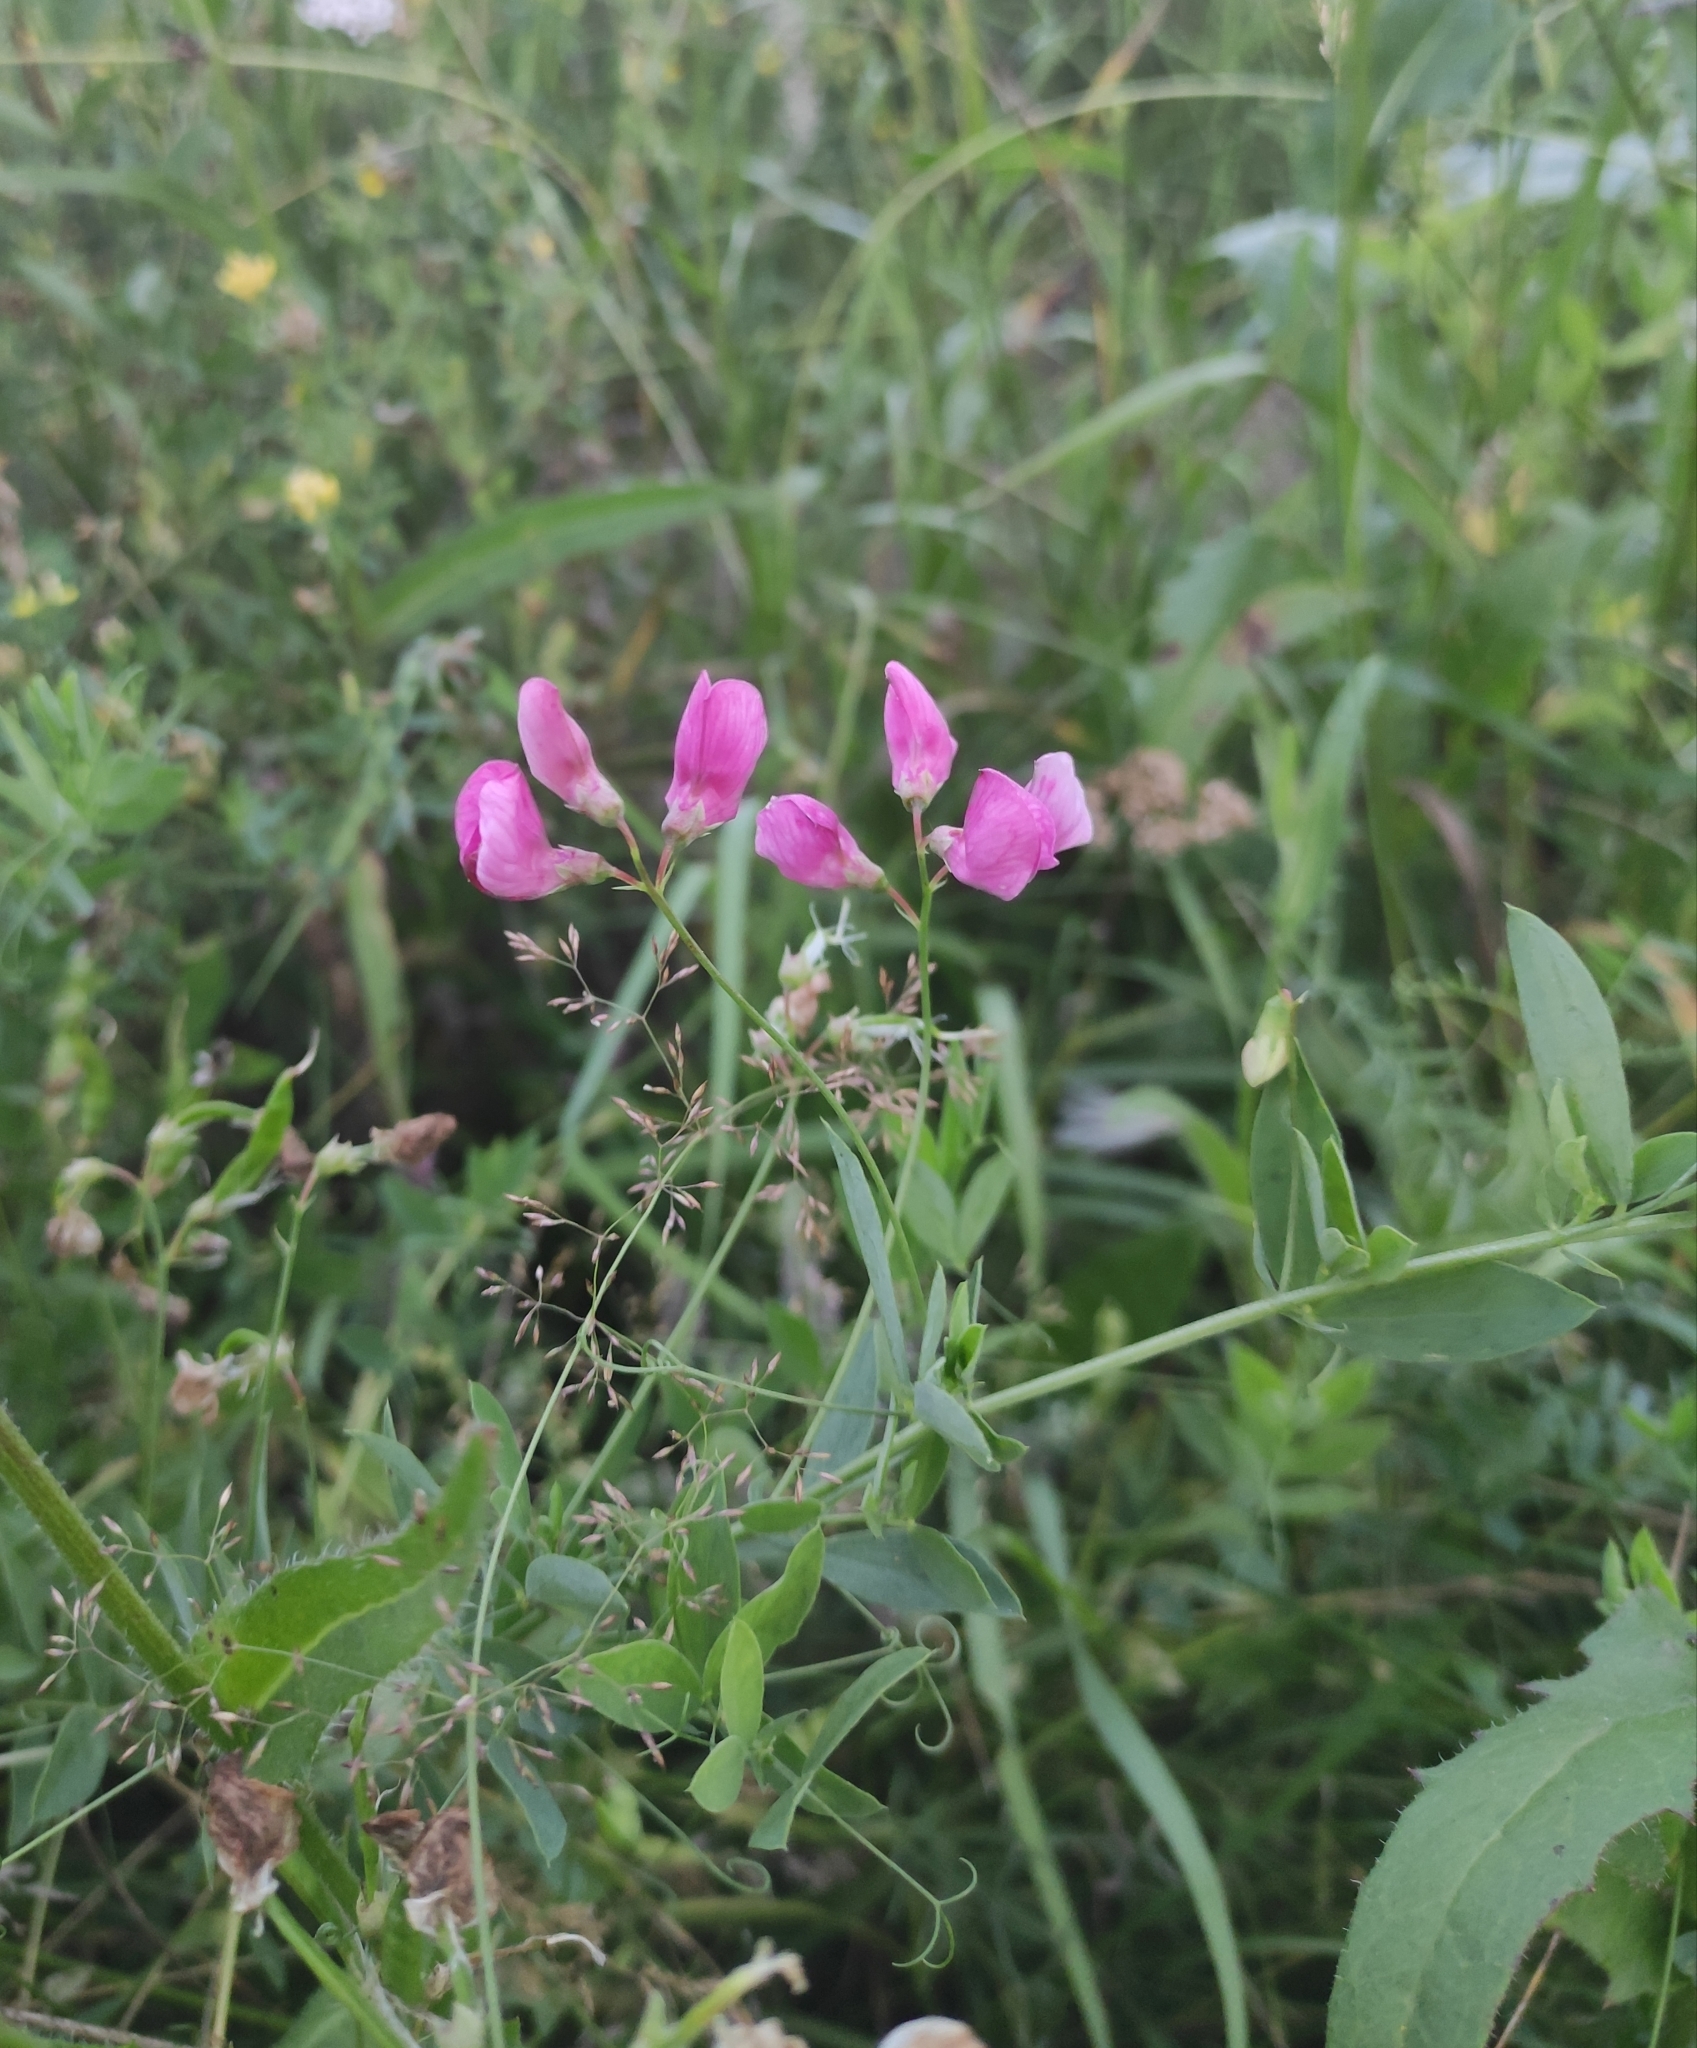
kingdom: Plantae
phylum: Tracheophyta
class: Magnoliopsida
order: Fabales
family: Fabaceae
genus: Lathyrus
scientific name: Lathyrus tuberosus
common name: Tuberous pea
